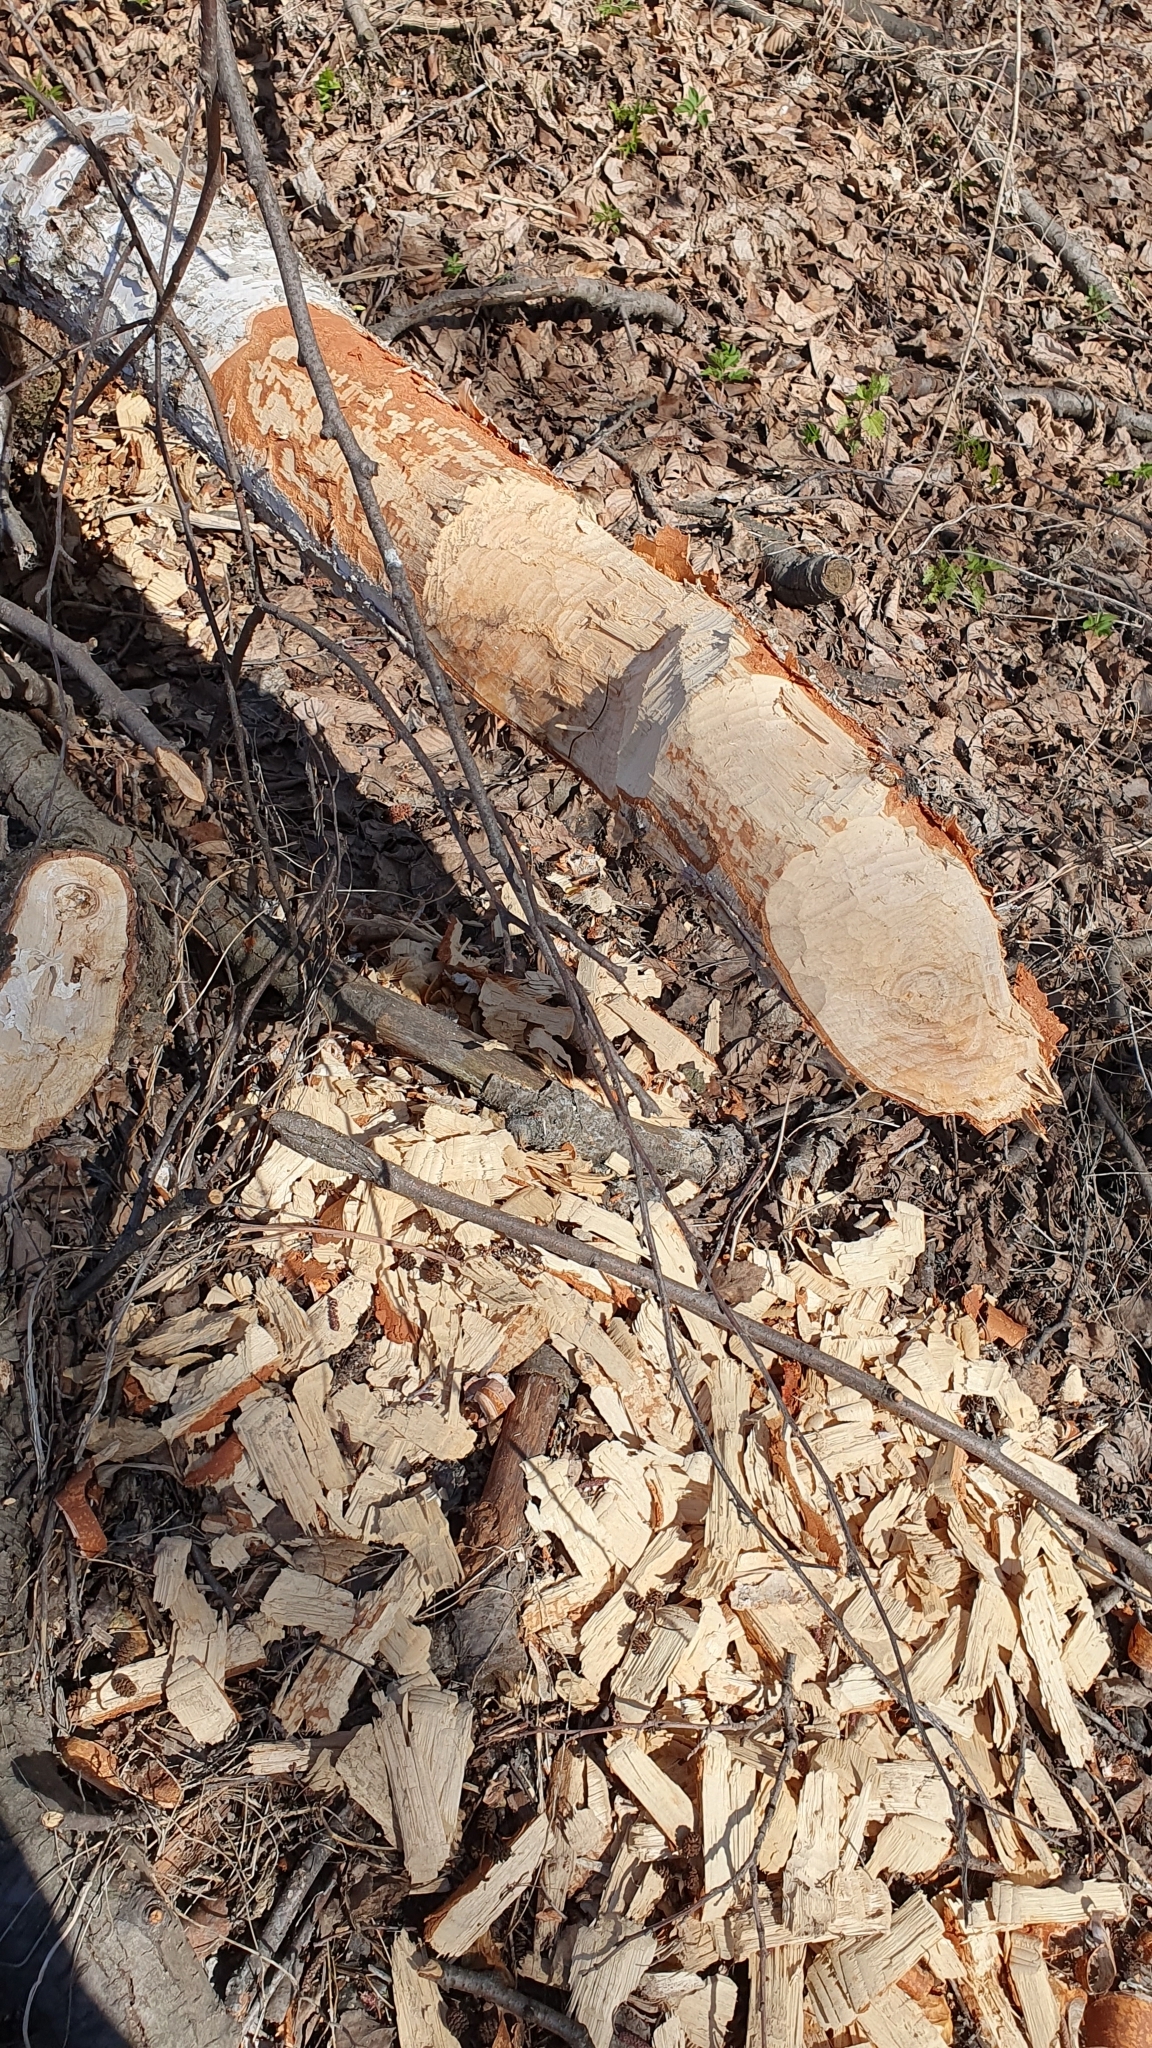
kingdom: Animalia
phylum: Chordata
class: Mammalia
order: Rodentia
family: Castoridae
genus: Castor
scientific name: Castor fiber
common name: Eurasian beaver
